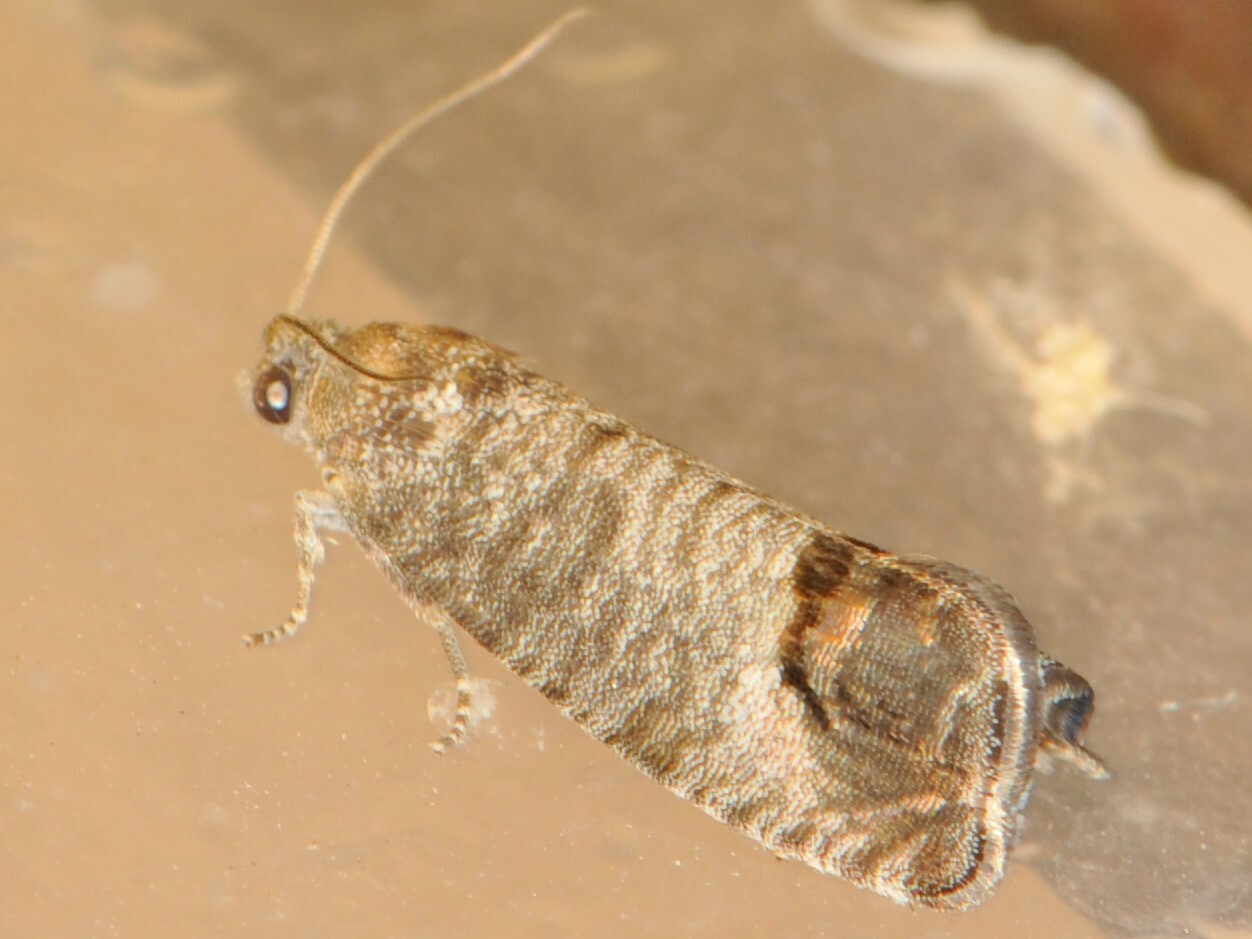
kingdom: Animalia
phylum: Arthropoda
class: Insecta
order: Lepidoptera
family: Tortricidae
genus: Cydia
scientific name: Cydia pomonella
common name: Codling moth
